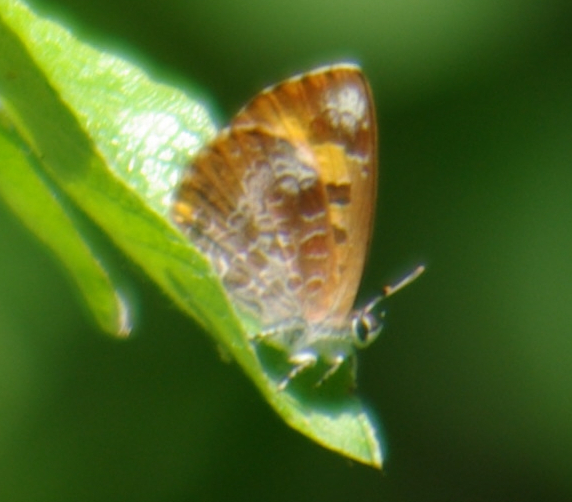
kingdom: Animalia
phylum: Arthropoda
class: Insecta
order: Lepidoptera
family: Lycaenidae
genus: Feniseca
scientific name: Feniseca tarquinius
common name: Harvester
